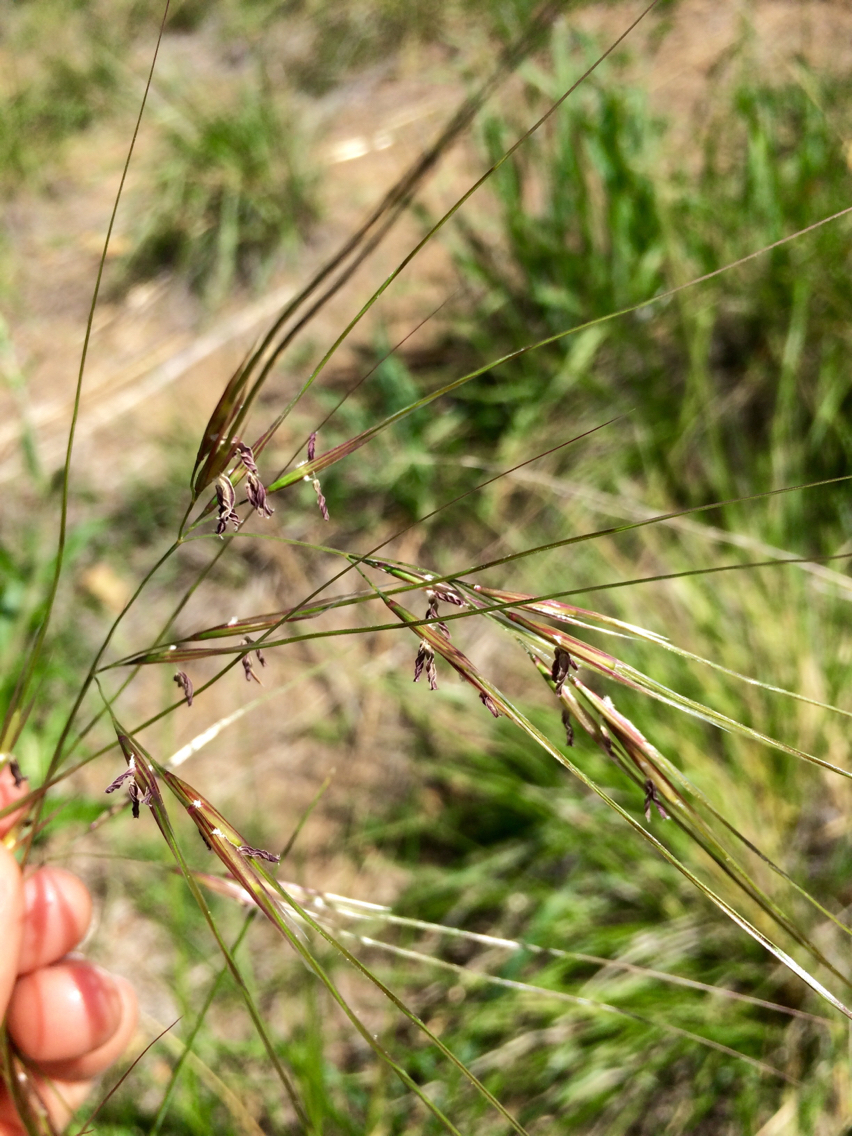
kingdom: Plantae
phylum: Tracheophyta
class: Liliopsida
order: Poales
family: Poaceae
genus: Nassella
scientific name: Nassella pulchra
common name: Purple needlegrass
